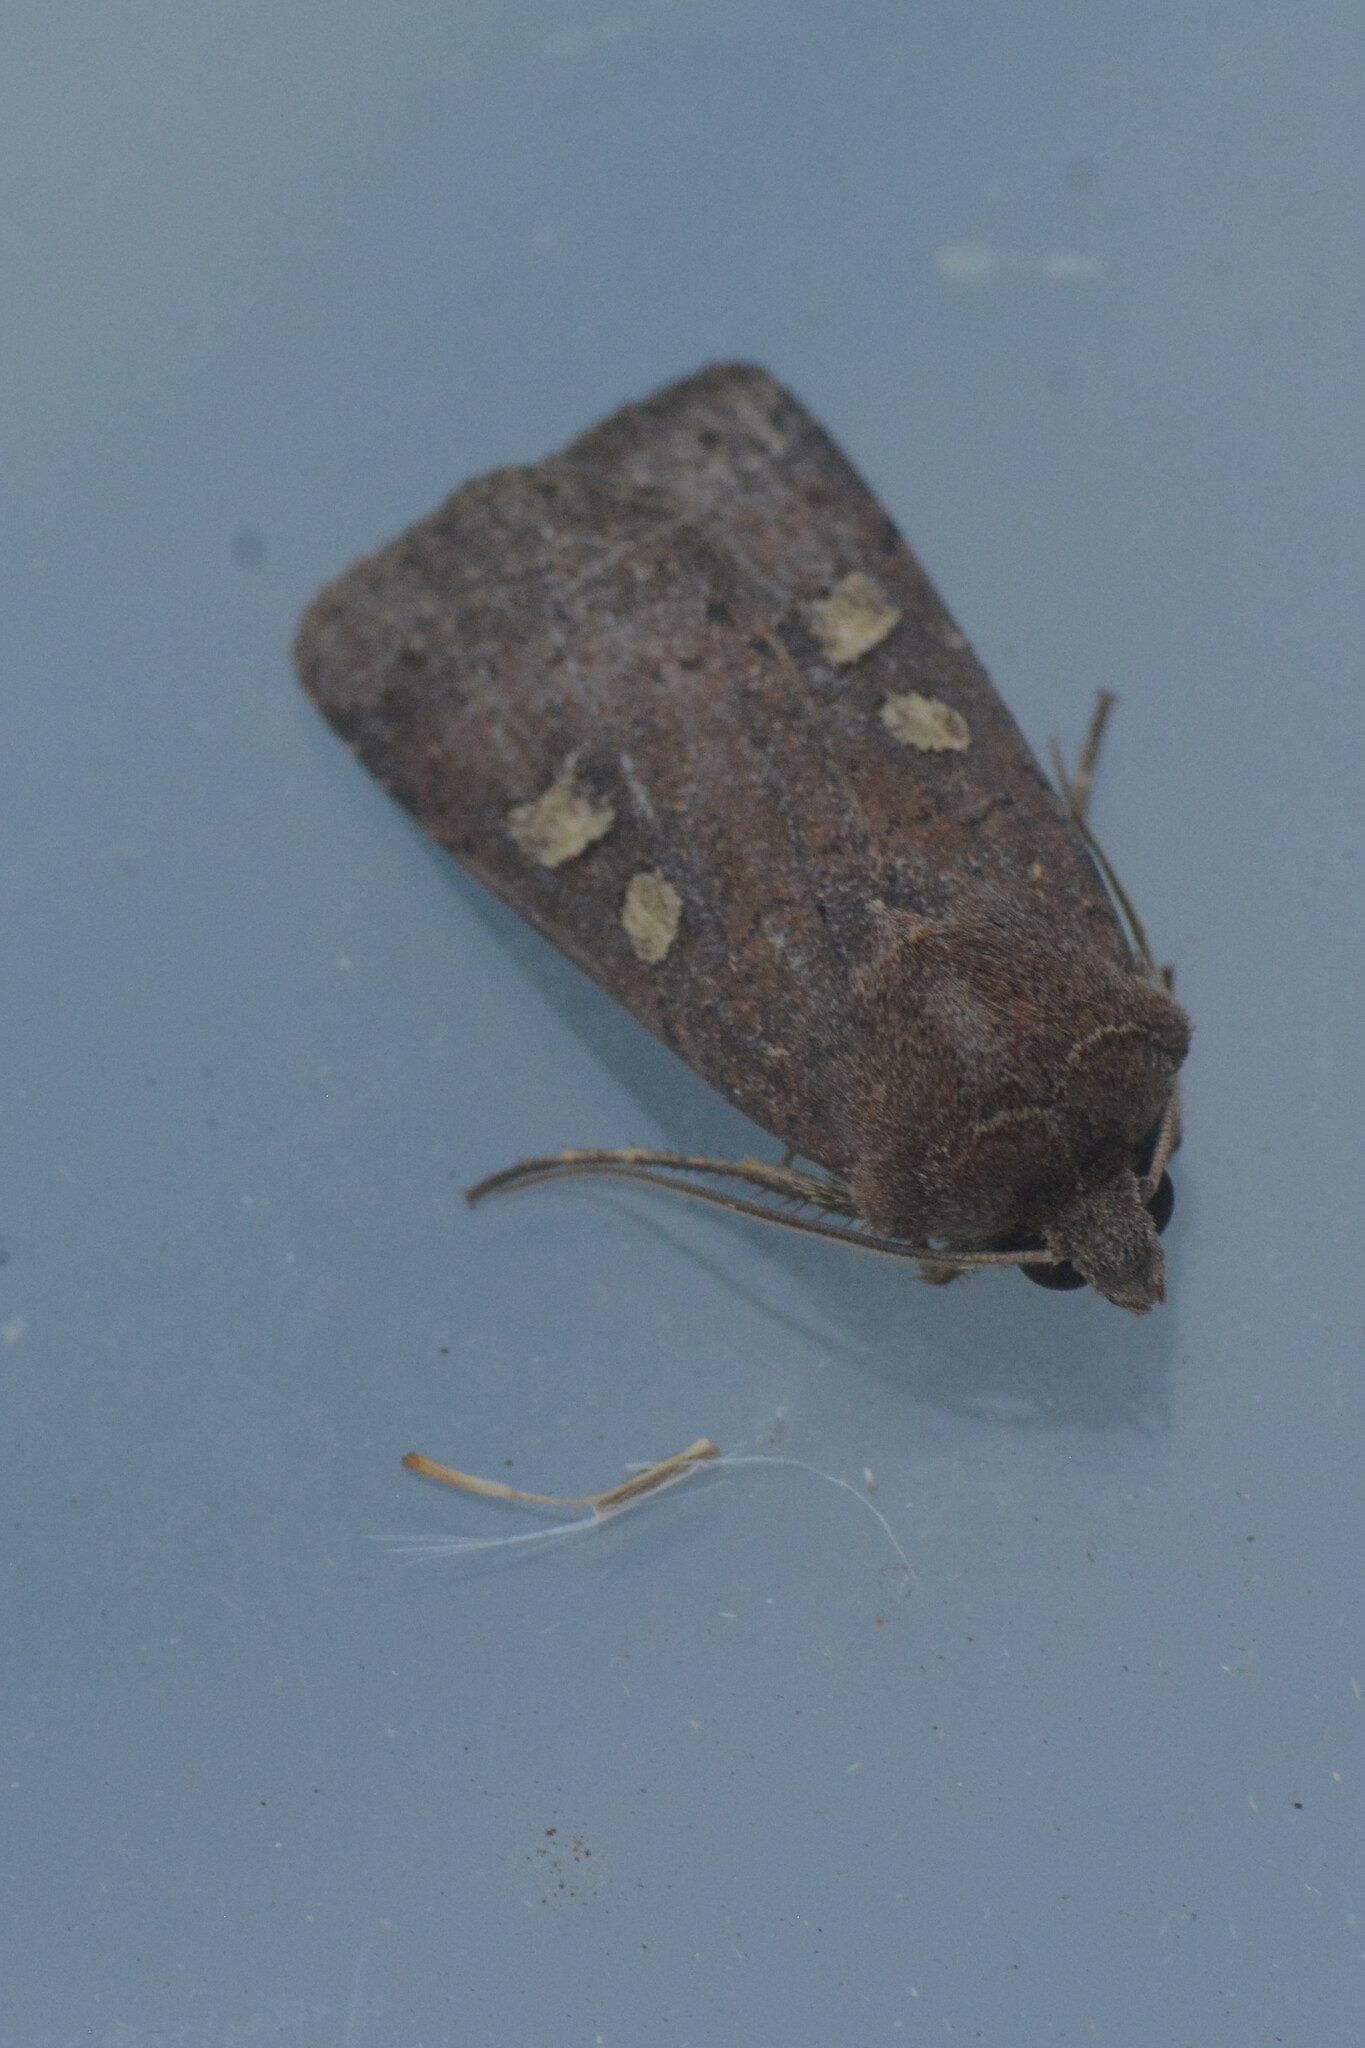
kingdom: Animalia
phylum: Arthropoda
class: Insecta
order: Lepidoptera
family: Noctuidae
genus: Xestia
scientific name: Xestia xanthographa
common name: Square-spot rustic
